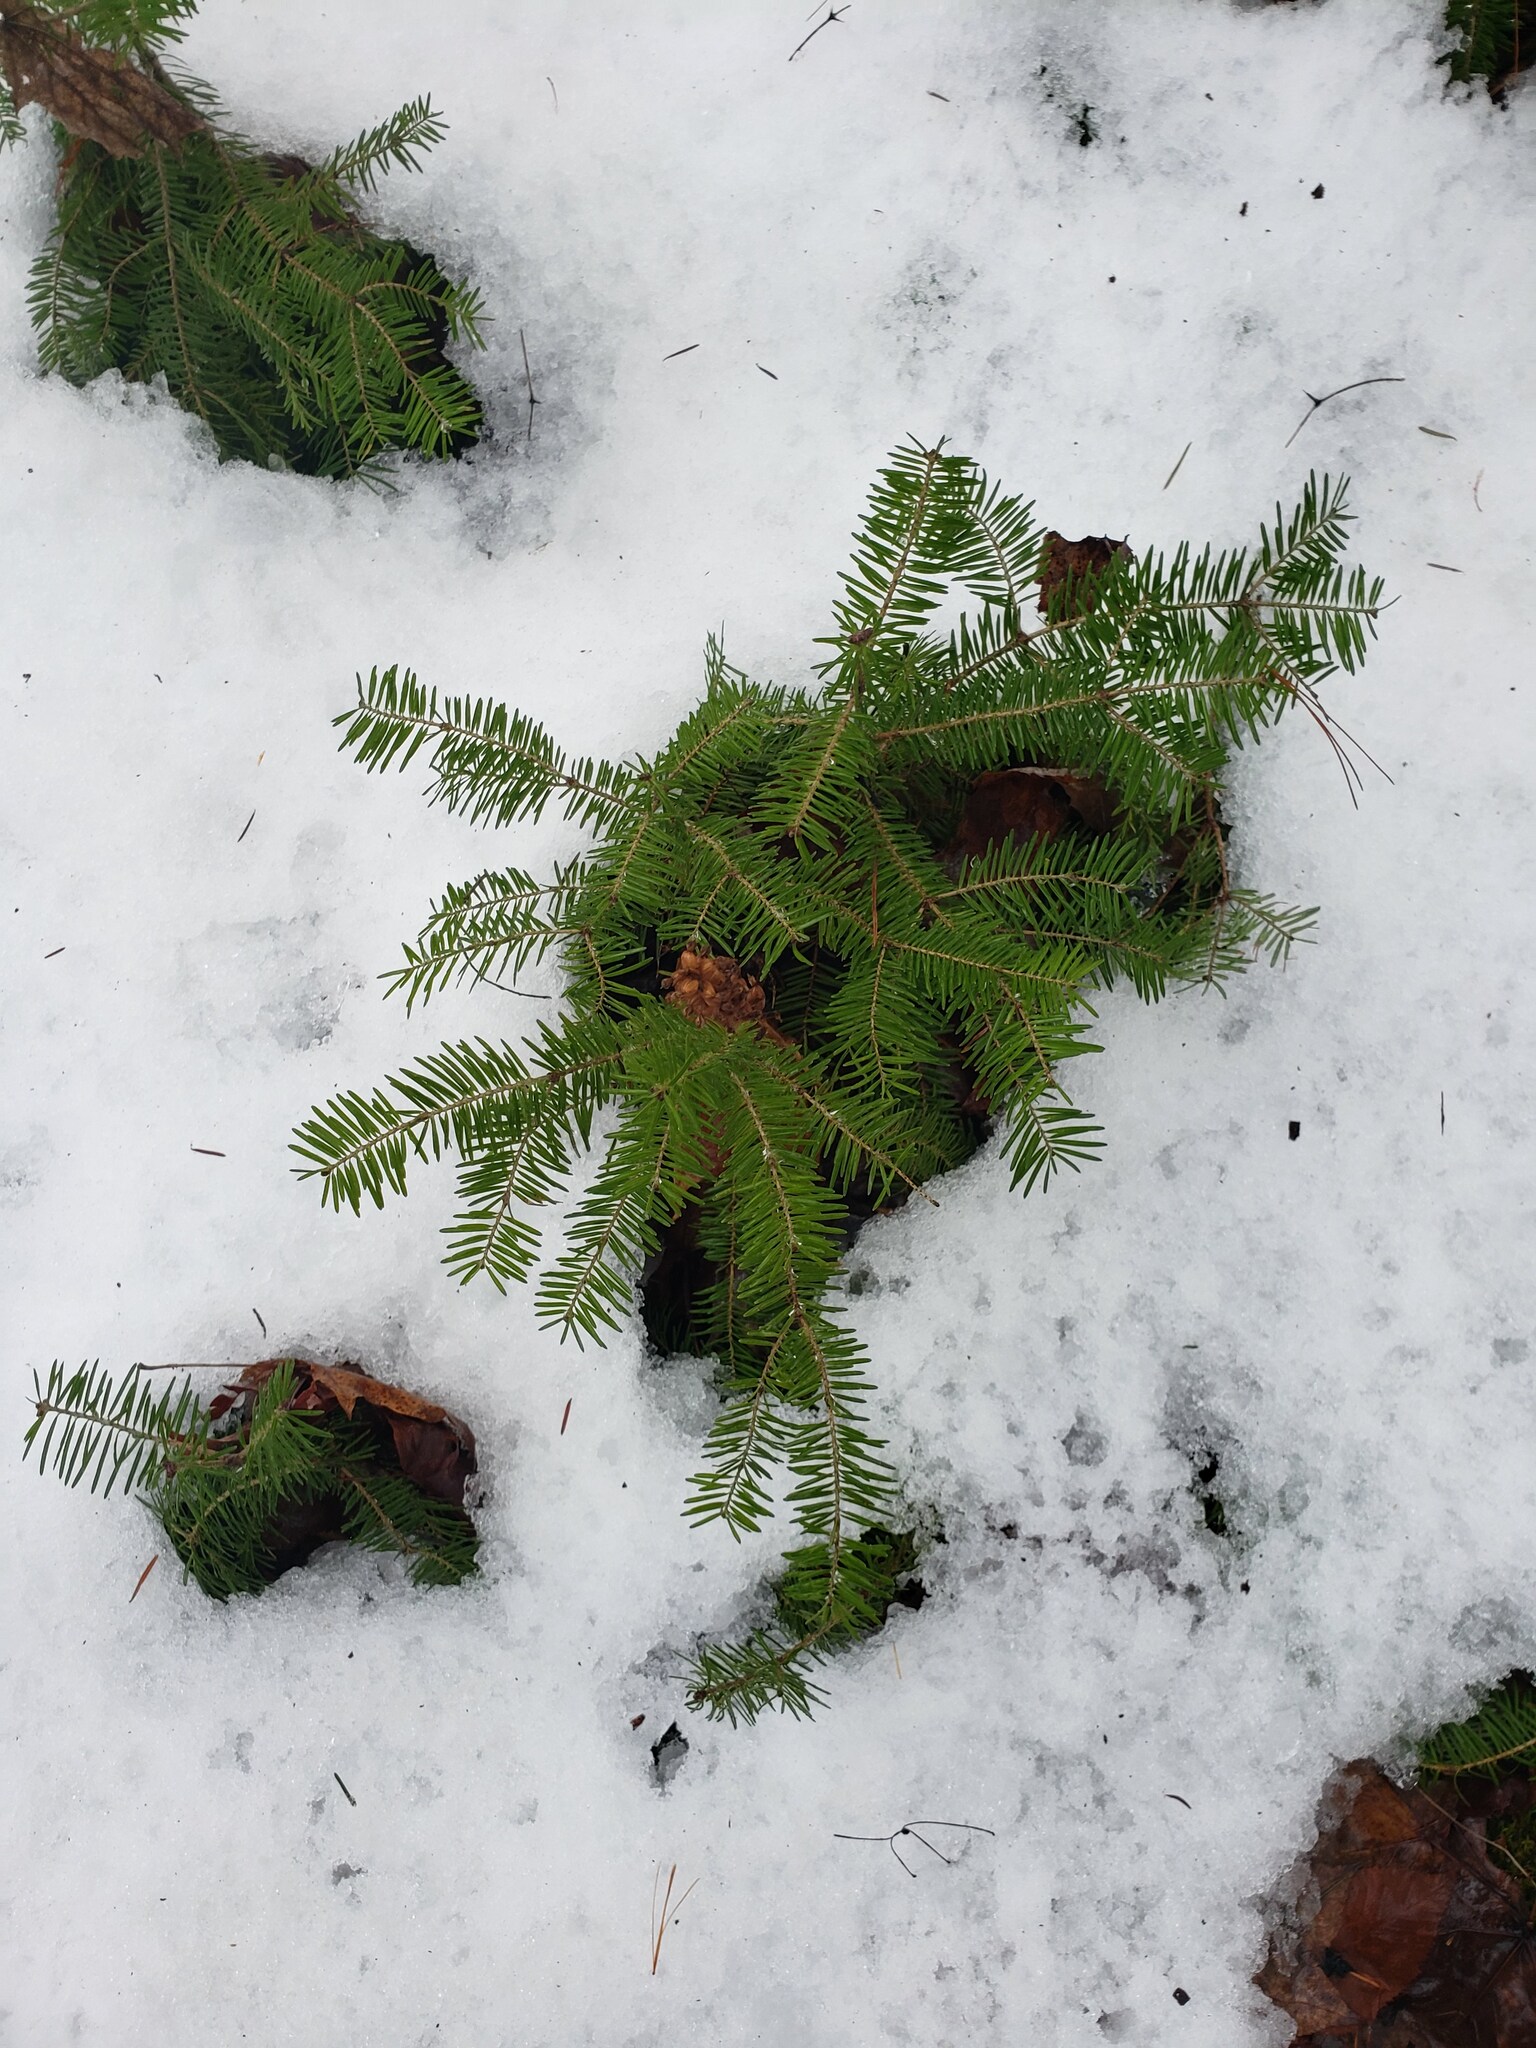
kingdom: Plantae
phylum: Tracheophyta
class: Pinopsida
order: Pinales
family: Pinaceae
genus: Abies
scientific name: Abies balsamea
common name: Balsam fir
